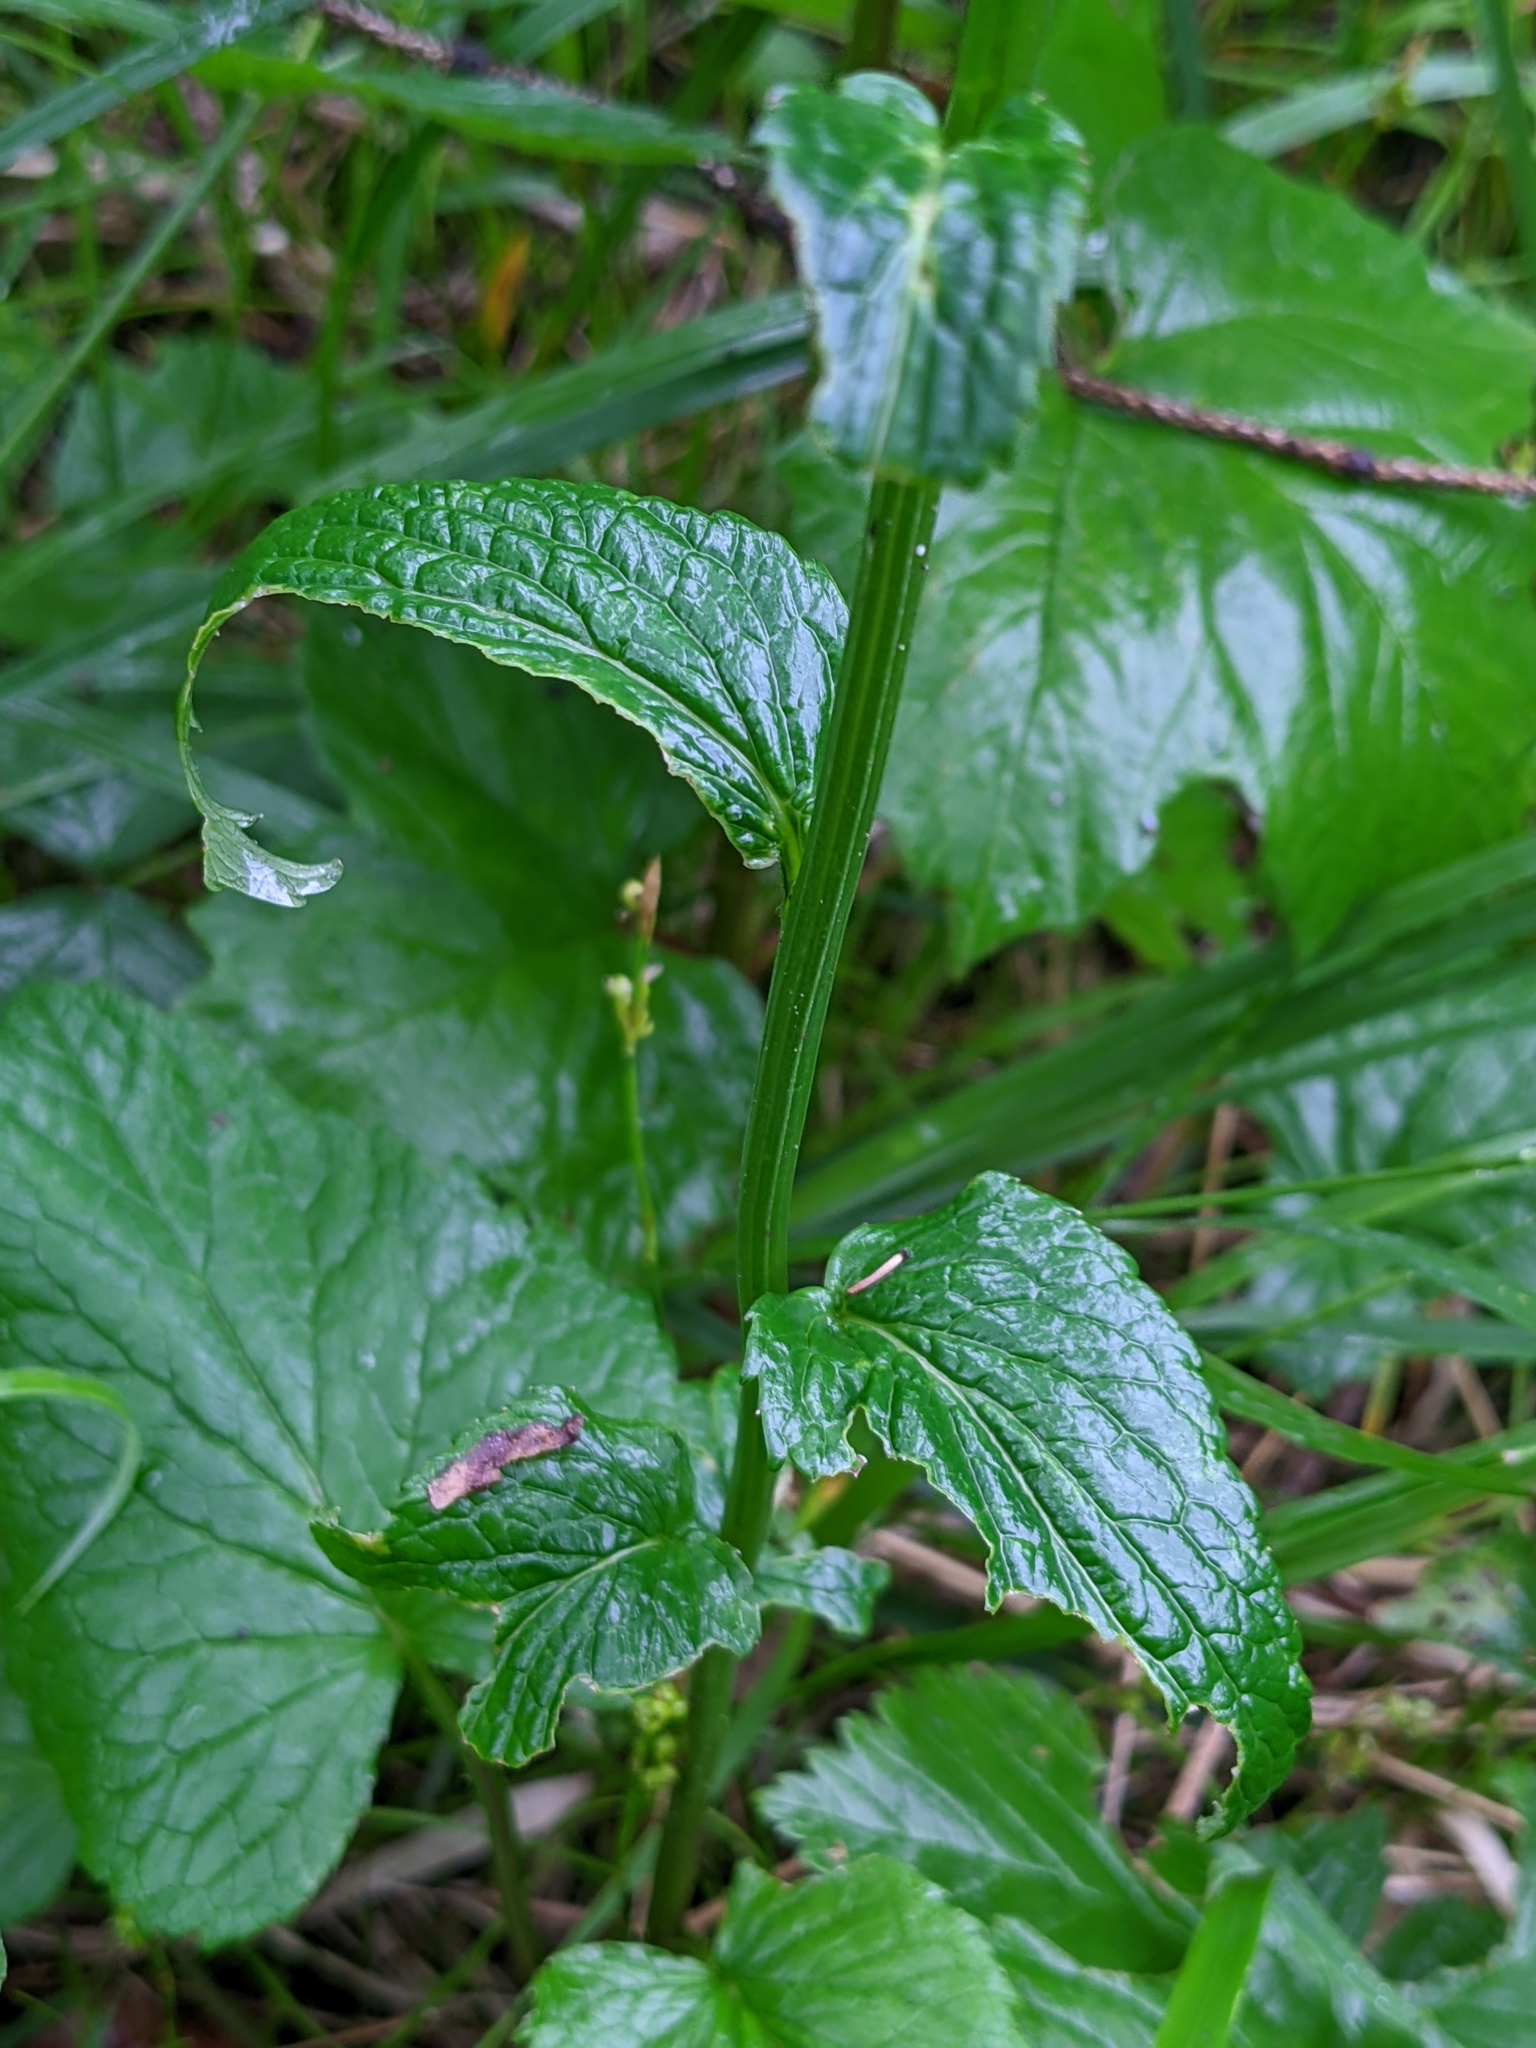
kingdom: Plantae
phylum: Tracheophyta
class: Magnoliopsida
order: Asterales
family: Campanulaceae
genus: Phyteuma
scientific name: Phyteuma spicatum
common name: Spiked rampion
